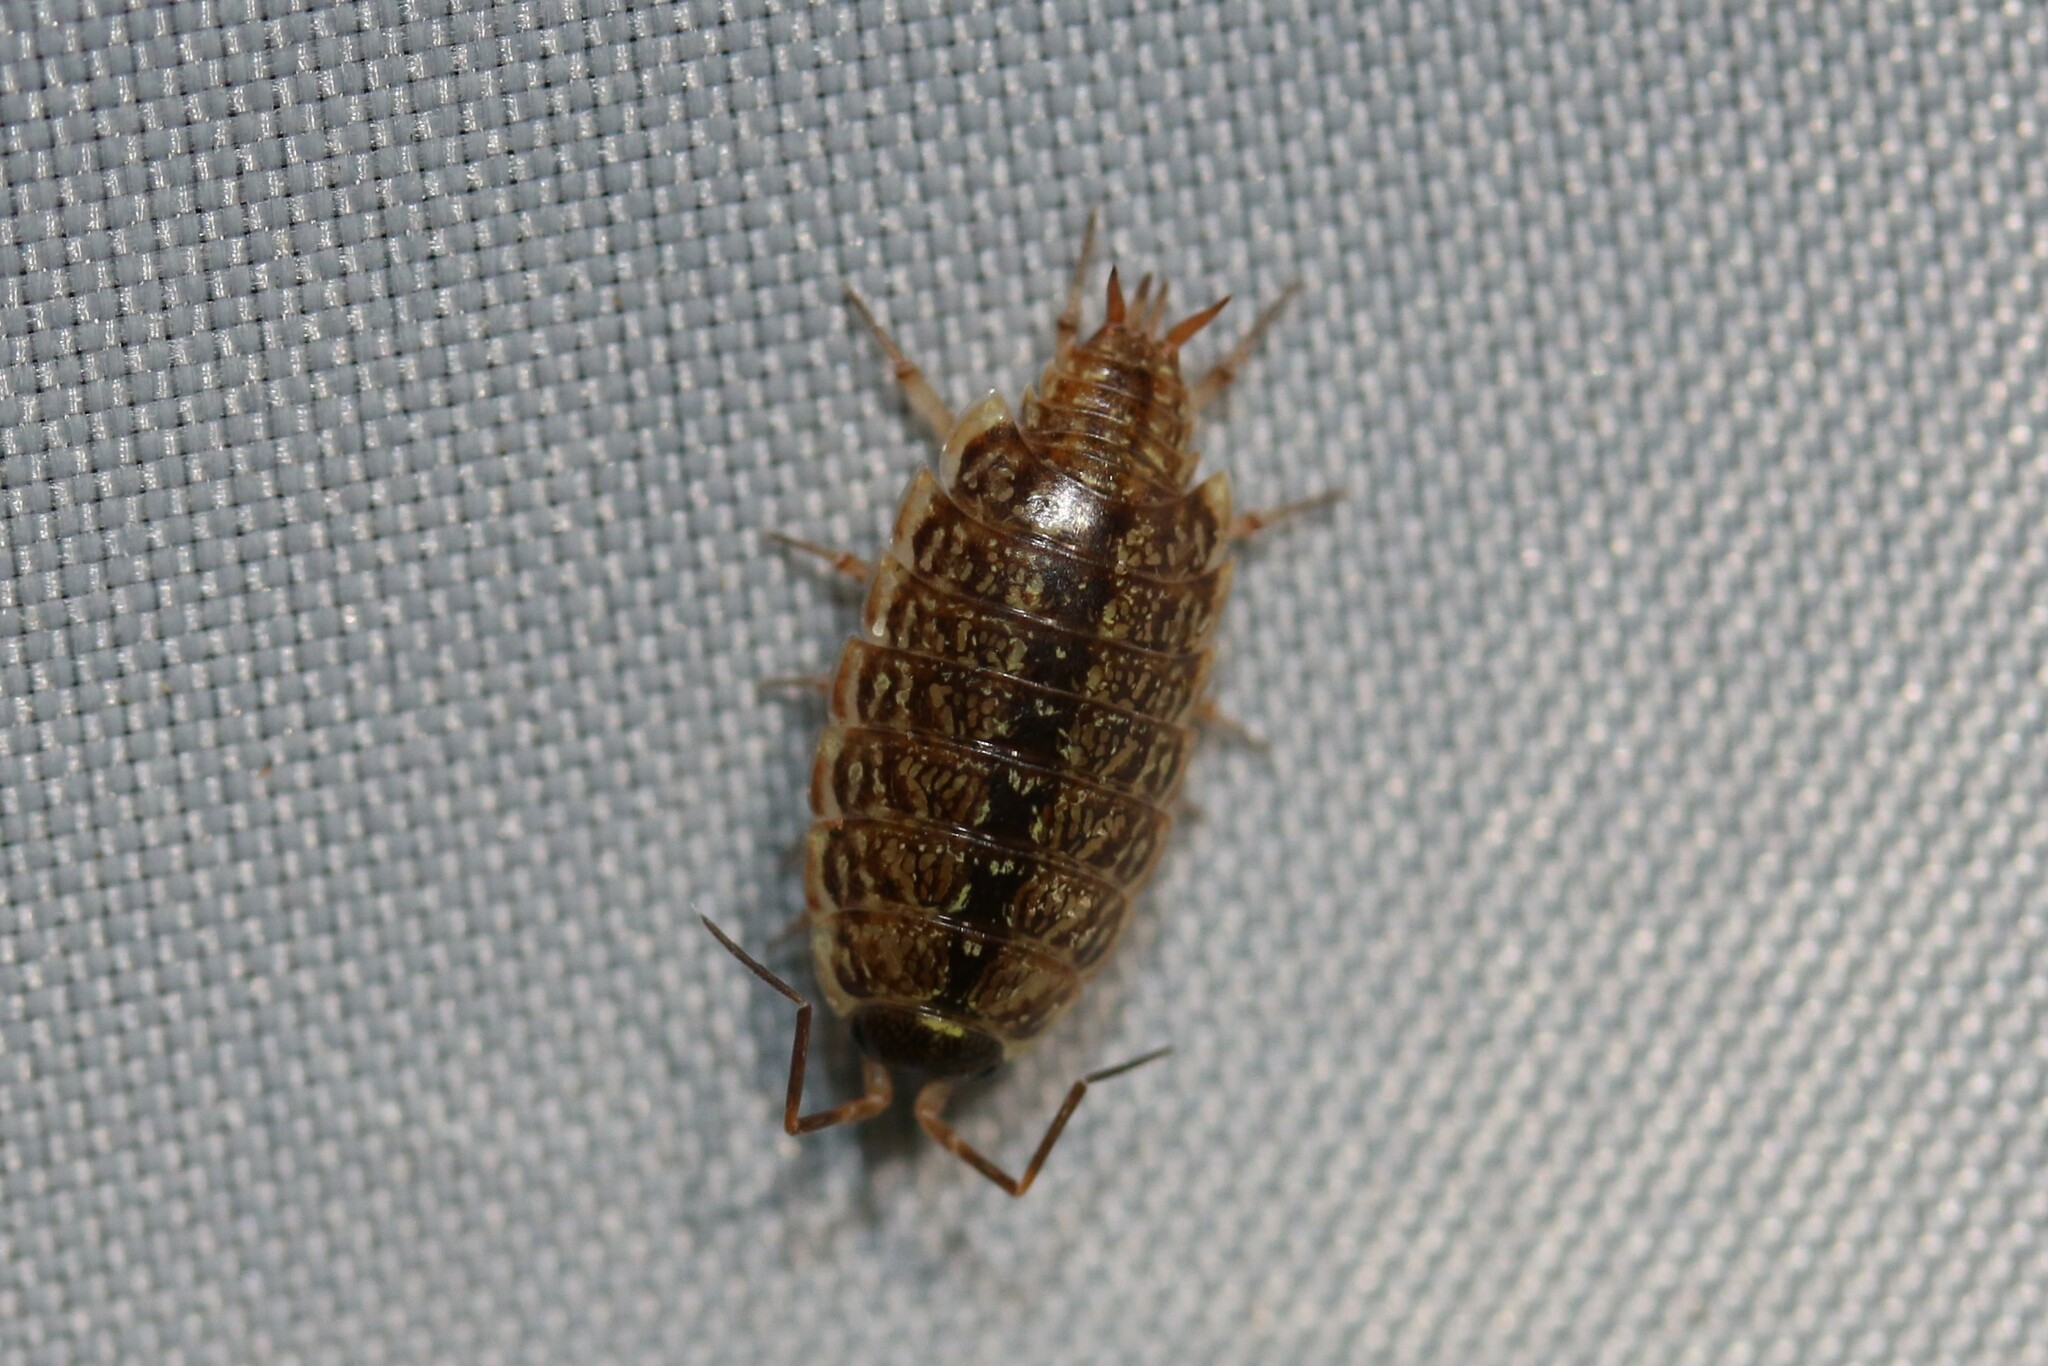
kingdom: Animalia
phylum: Arthropoda
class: Malacostraca
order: Isopoda
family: Philosciidae
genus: Philoscia
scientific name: Philoscia muscorum
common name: Common striped woodlouse
